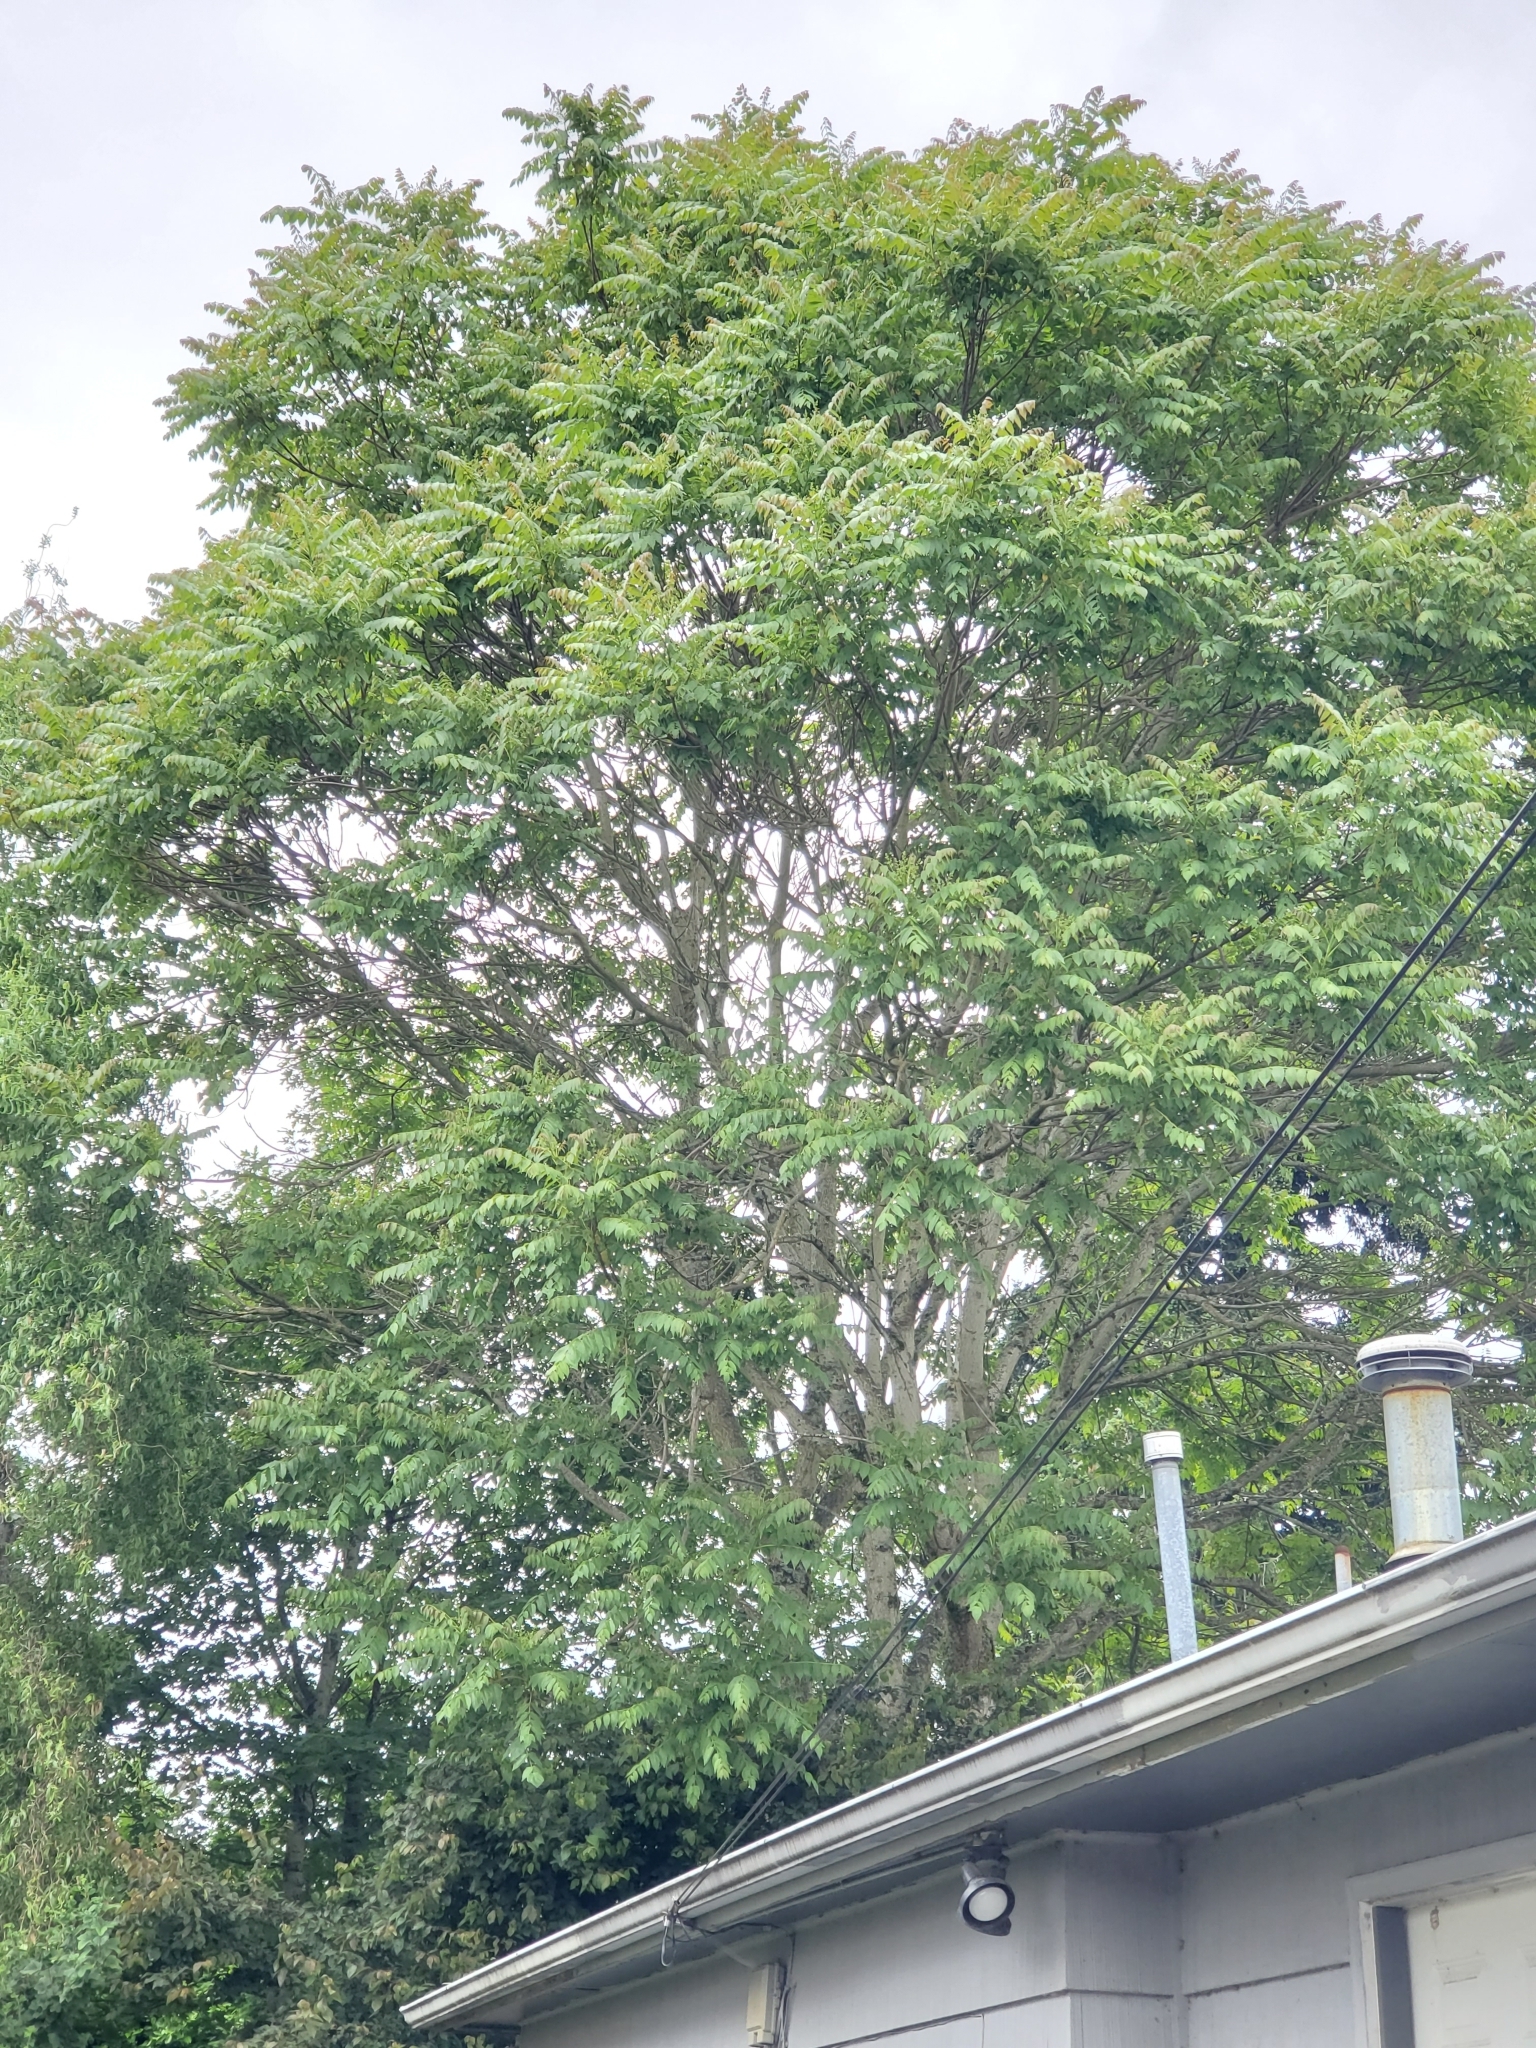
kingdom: Plantae
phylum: Tracheophyta
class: Magnoliopsida
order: Sapindales
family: Simaroubaceae
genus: Ailanthus
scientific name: Ailanthus altissima
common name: Tree-of-heaven
